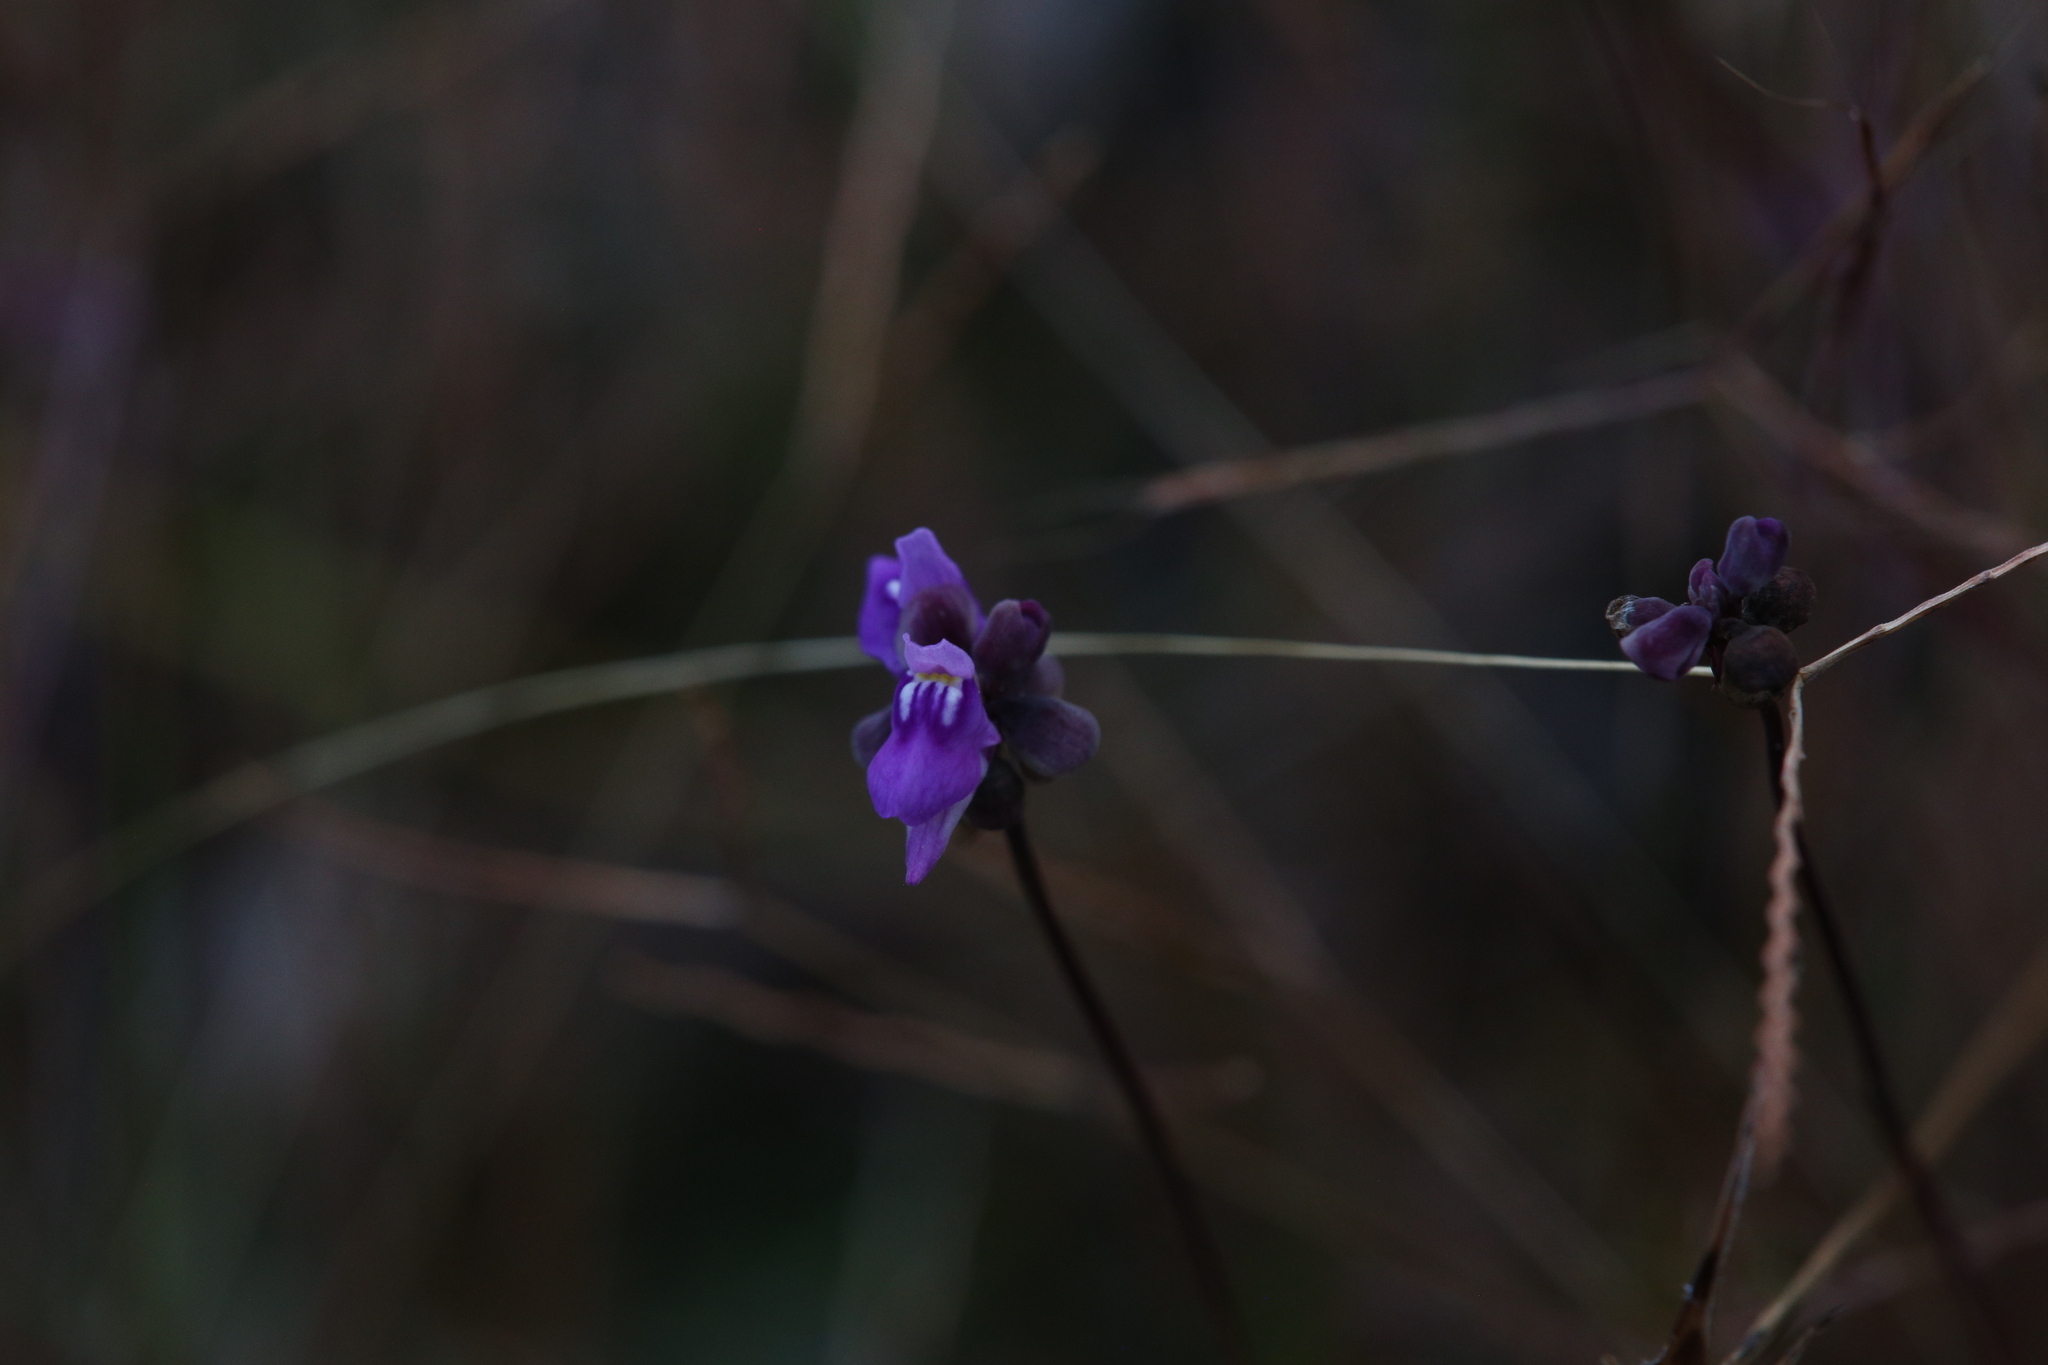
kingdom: Plantae
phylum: Tracheophyta
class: Magnoliopsida
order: Lamiales
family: Lentibulariaceae
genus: Utricularia
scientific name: Utricularia caerulea
